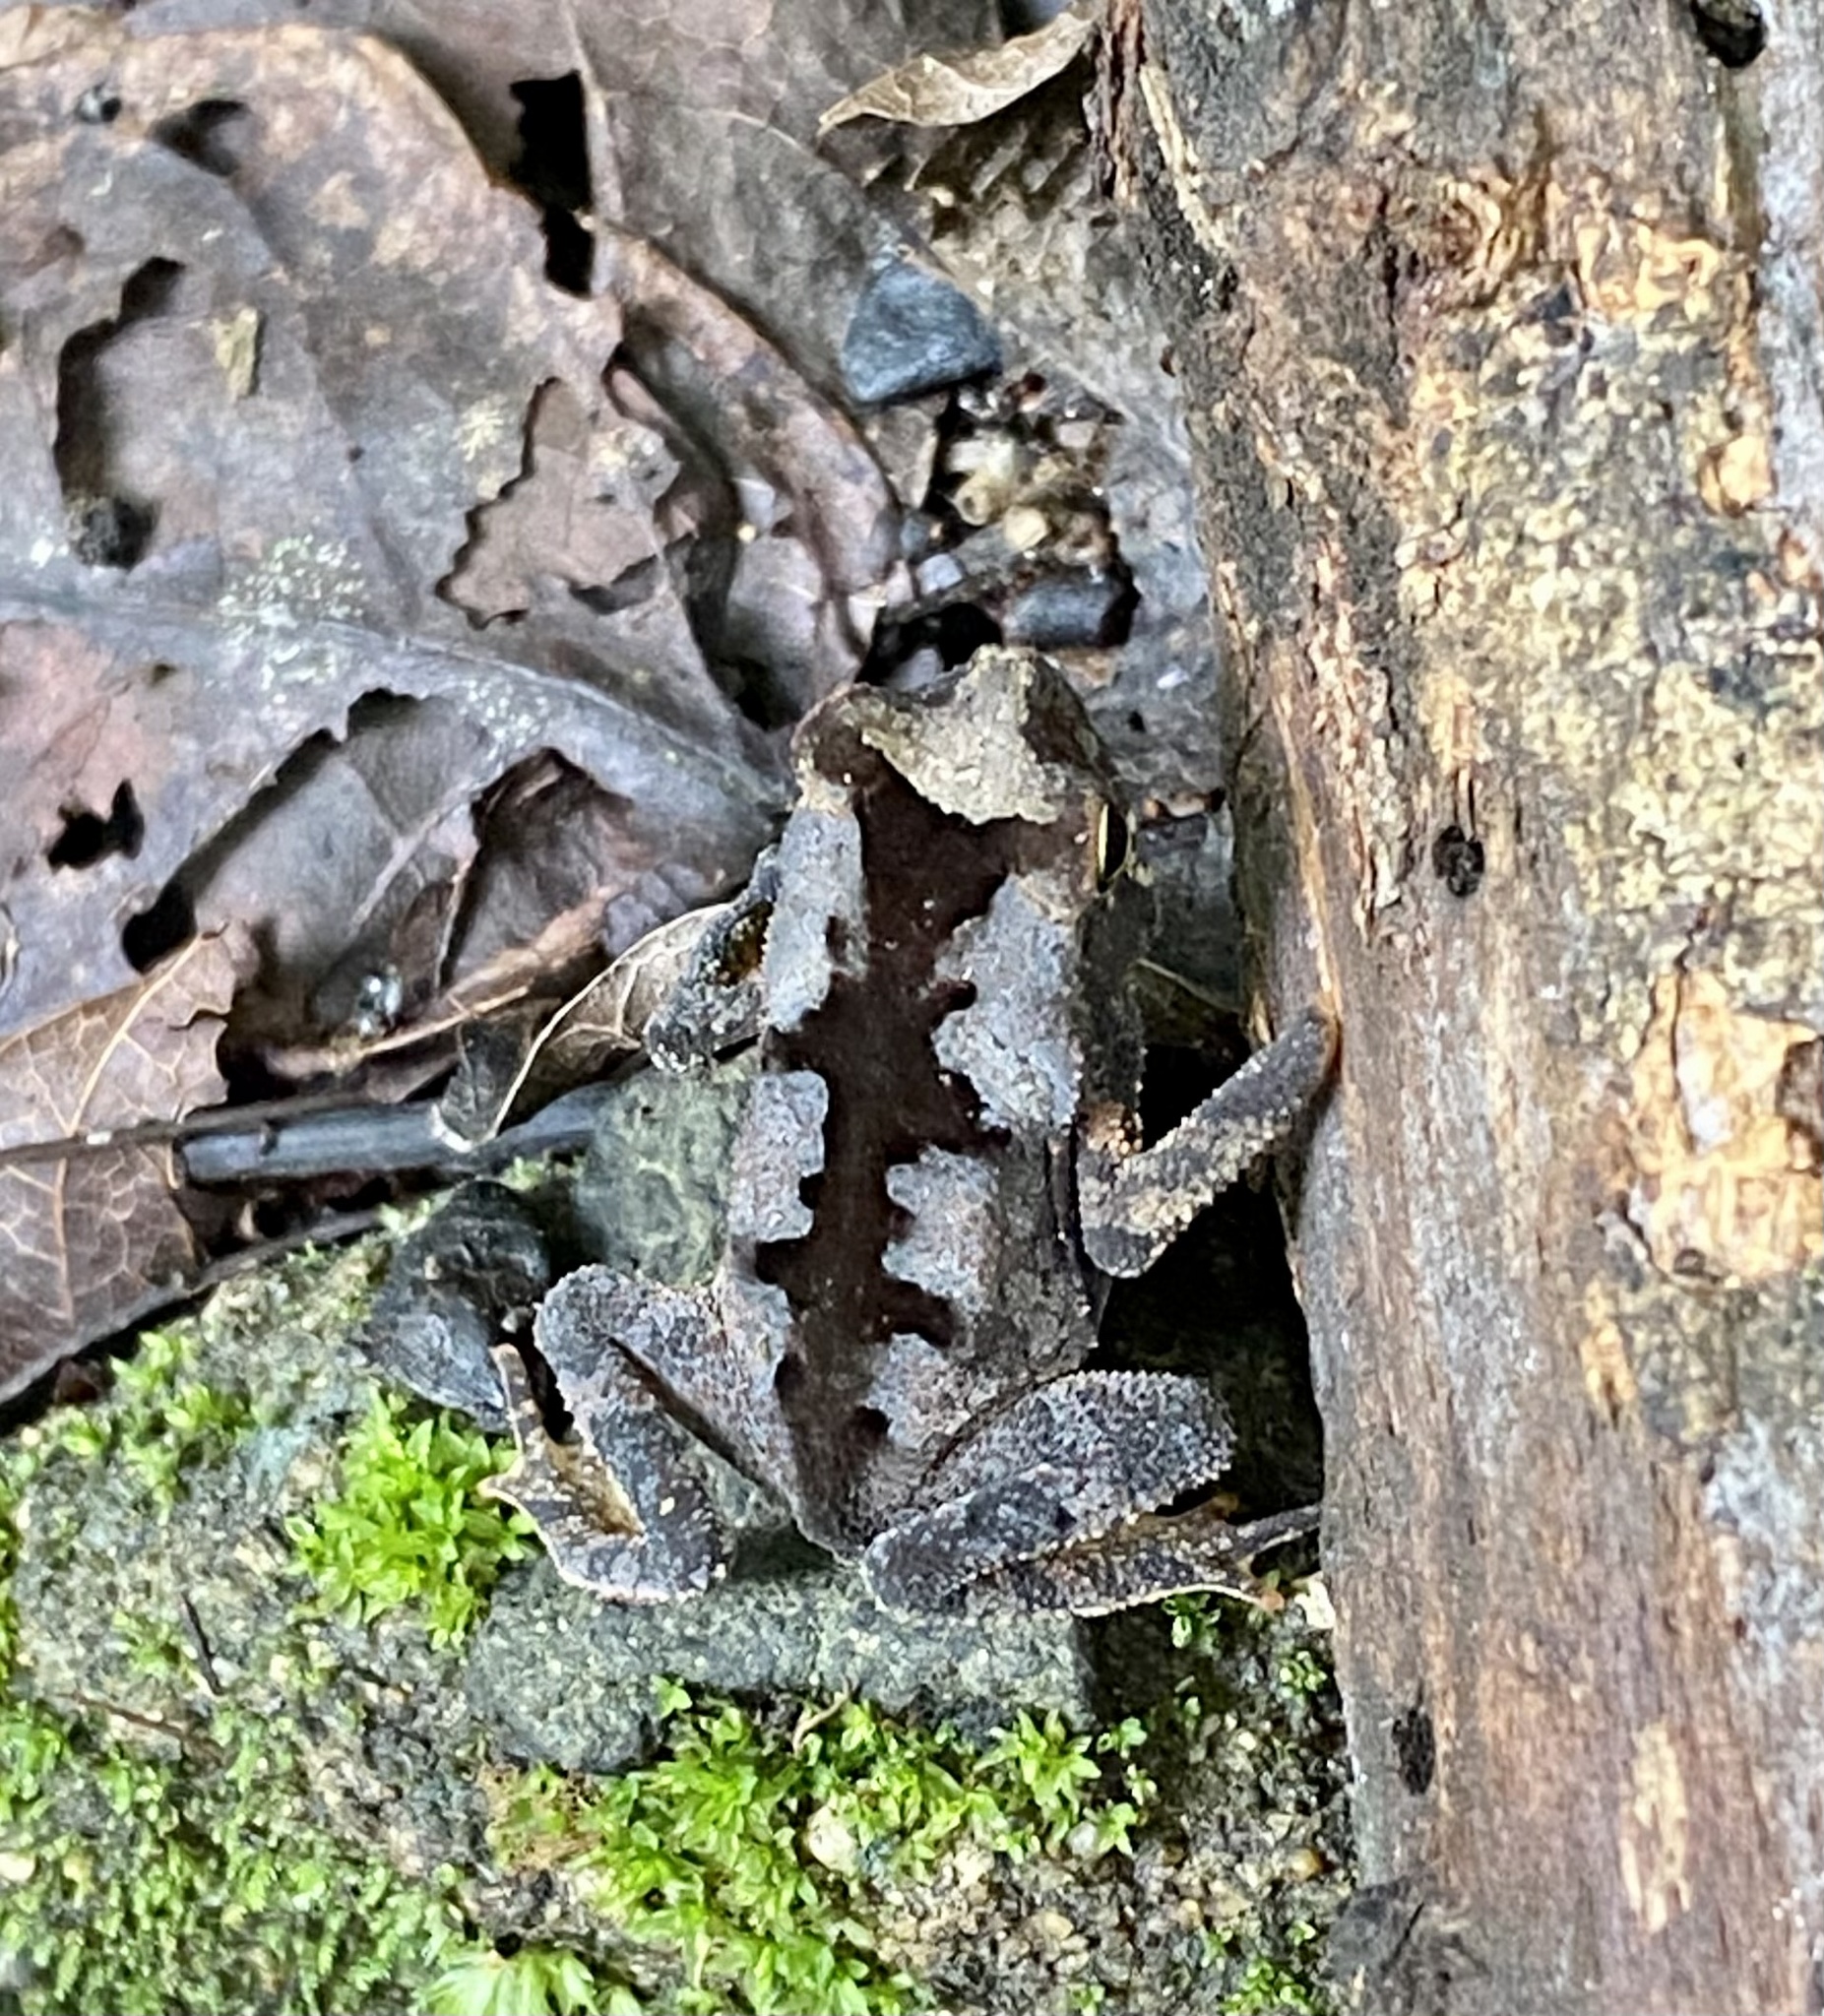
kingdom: Animalia
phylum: Chordata
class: Amphibia
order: Anura
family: Bufonidae
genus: Rhinella
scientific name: Rhinella alata
